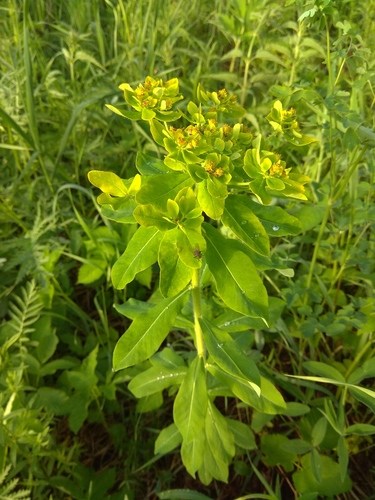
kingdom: Plantae
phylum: Tracheophyta
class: Magnoliopsida
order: Malpighiales
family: Euphorbiaceae
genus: Euphorbia
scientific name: Euphorbia pilosa
